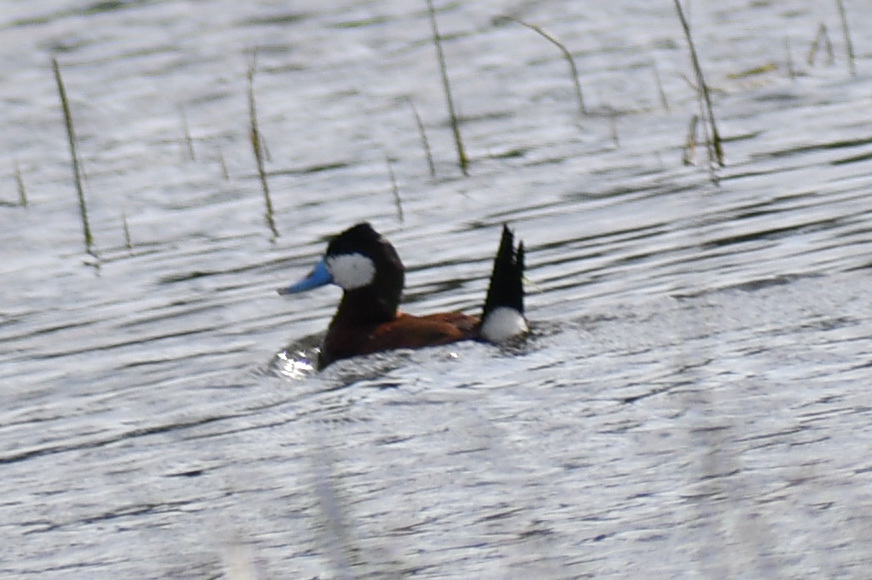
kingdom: Animalia
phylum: Chordata
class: Aves
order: Anseriformes
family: Anatidae
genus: Oxyura
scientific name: Oxyura jamaicensis
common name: Ruddy duck
